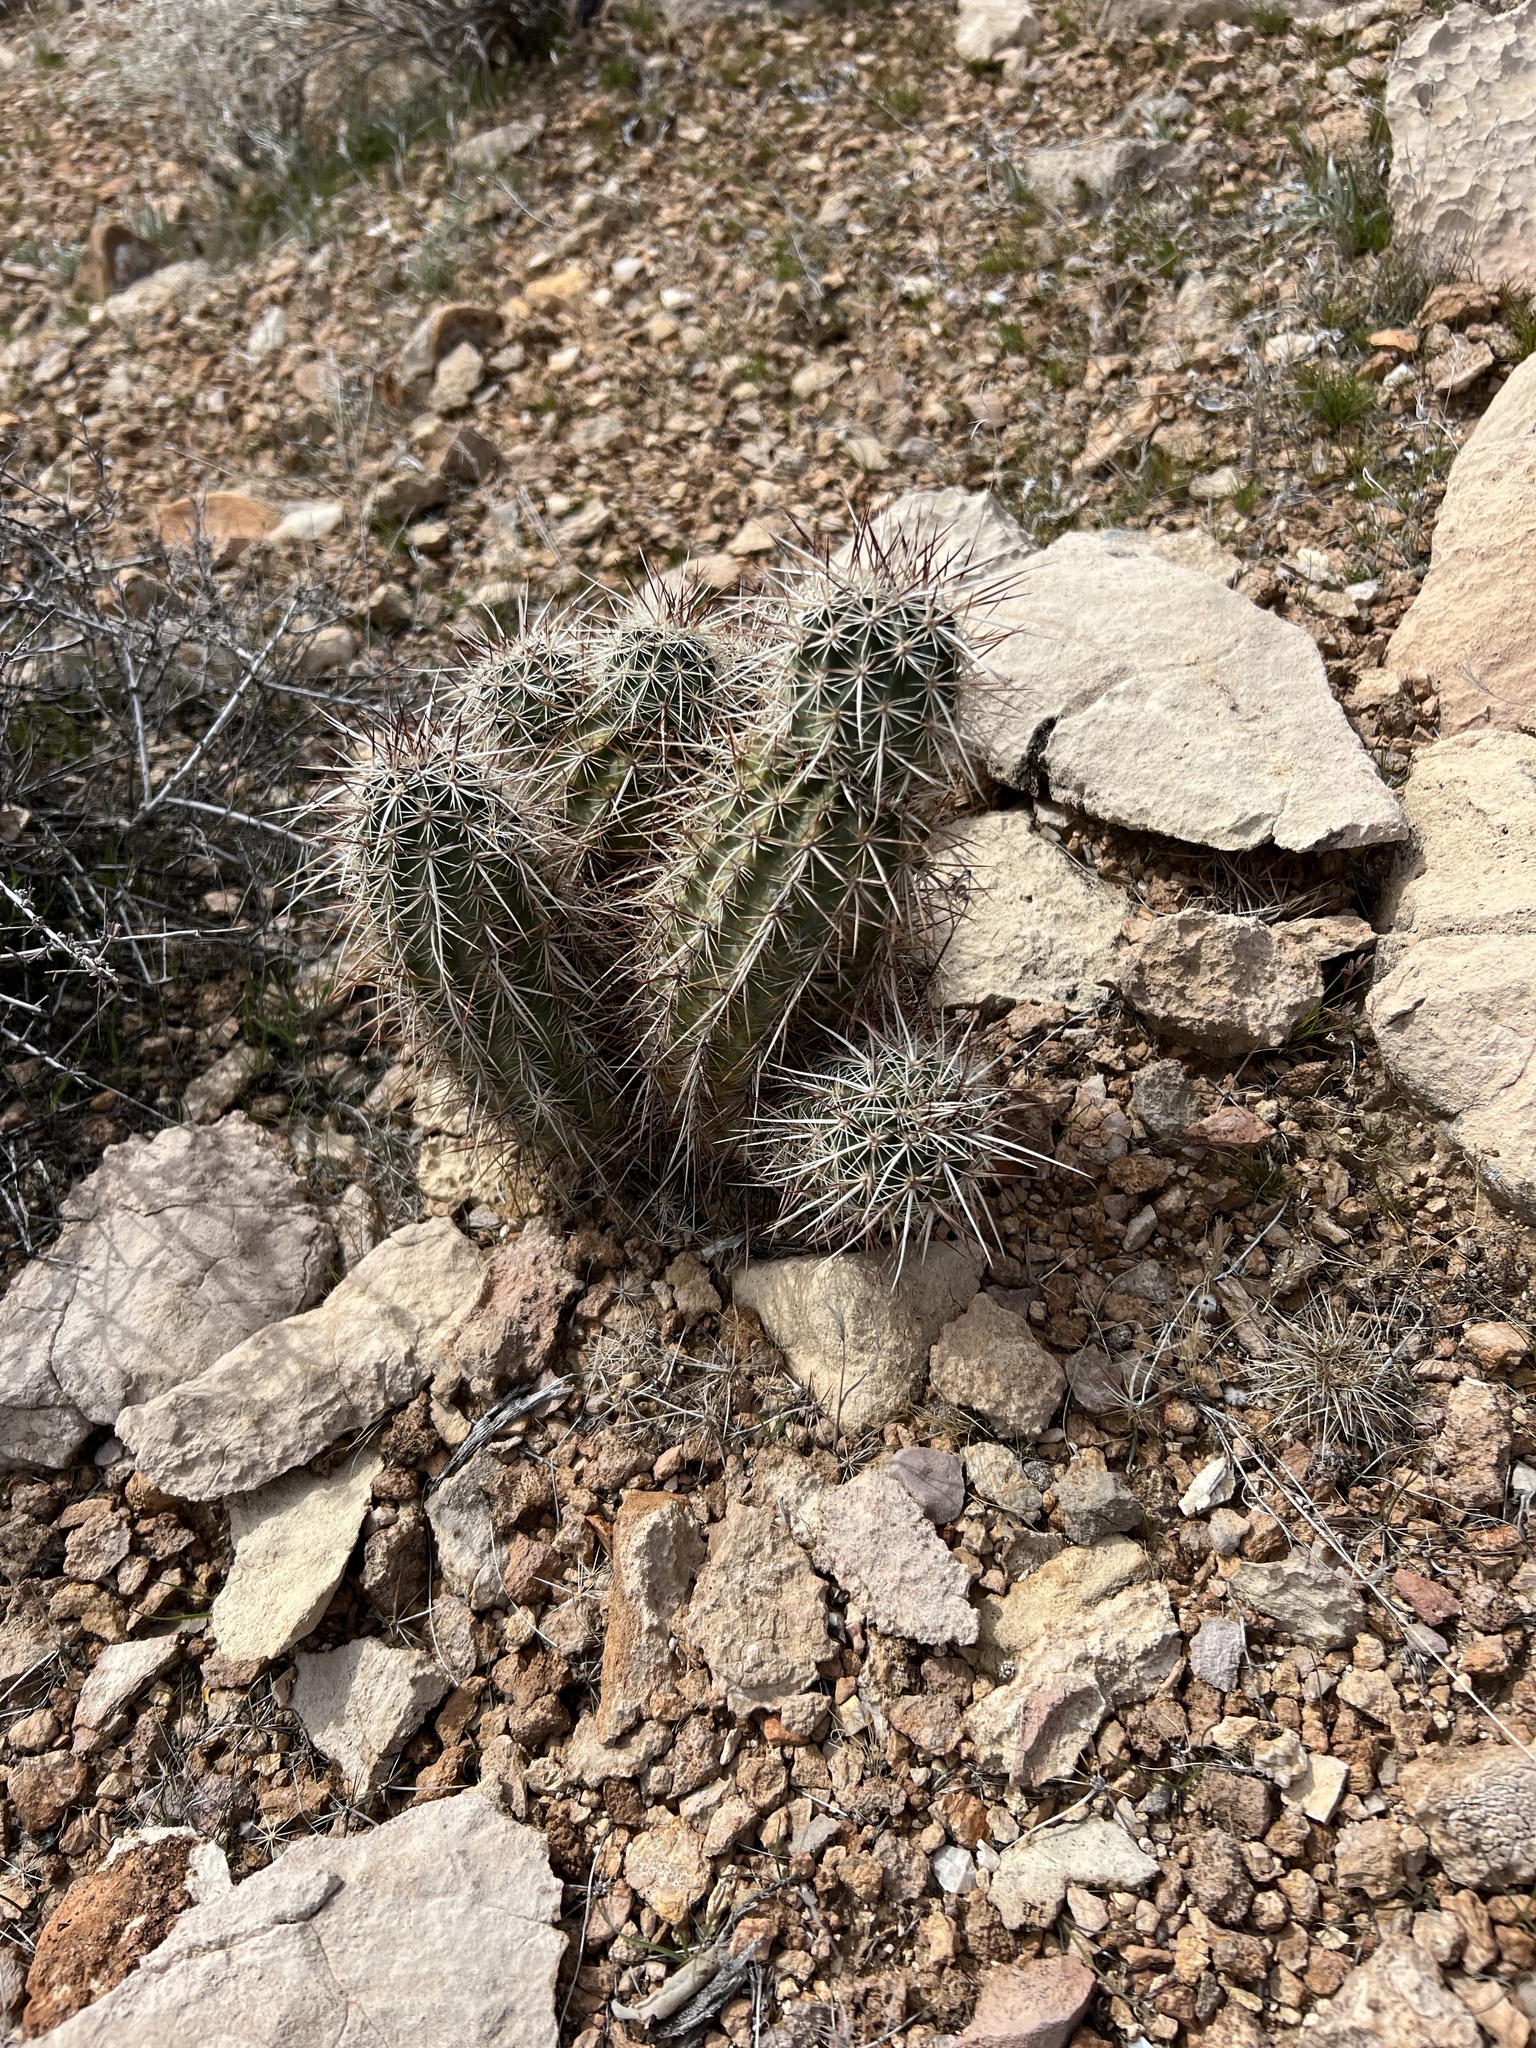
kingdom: Plantae
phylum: Tracheophyta
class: Magnoliopsida
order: Caryophyllales
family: Cactaceae
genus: Echinocereus
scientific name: Echinocereus engelmannii
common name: Engelmann's hedgehog cactus
